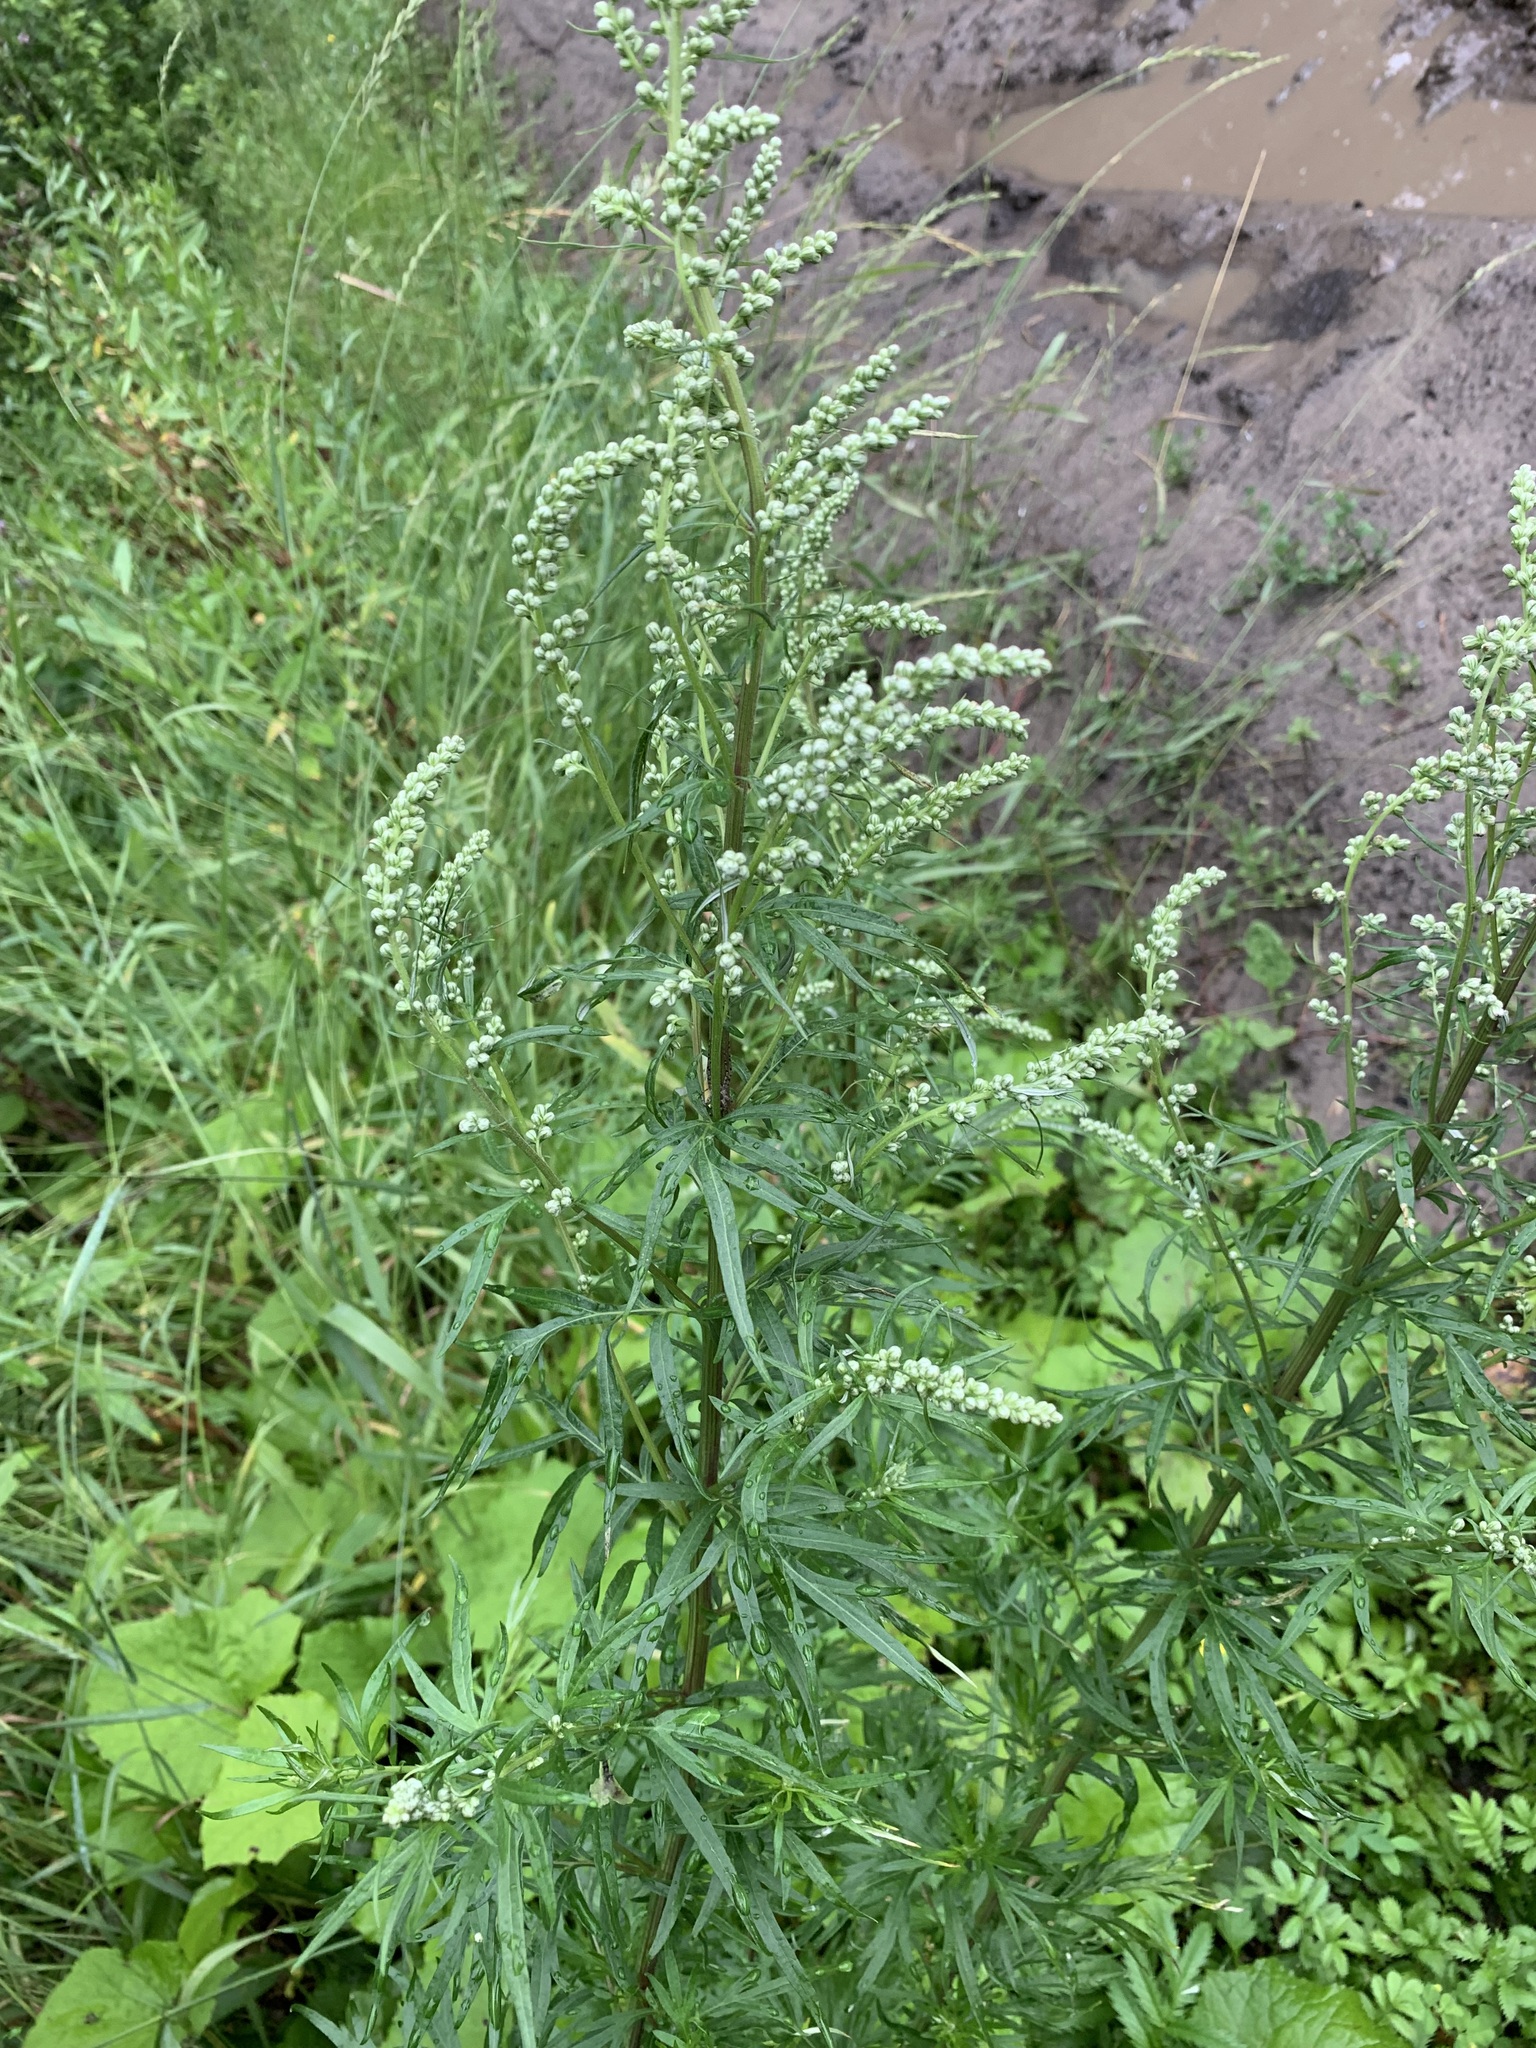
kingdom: Plantae
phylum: Tracheophyta
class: Magnoliopsida
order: Asterales
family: Asteraceae
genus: Artemisia
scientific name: Artemisia vulgaris
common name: Mugwort
